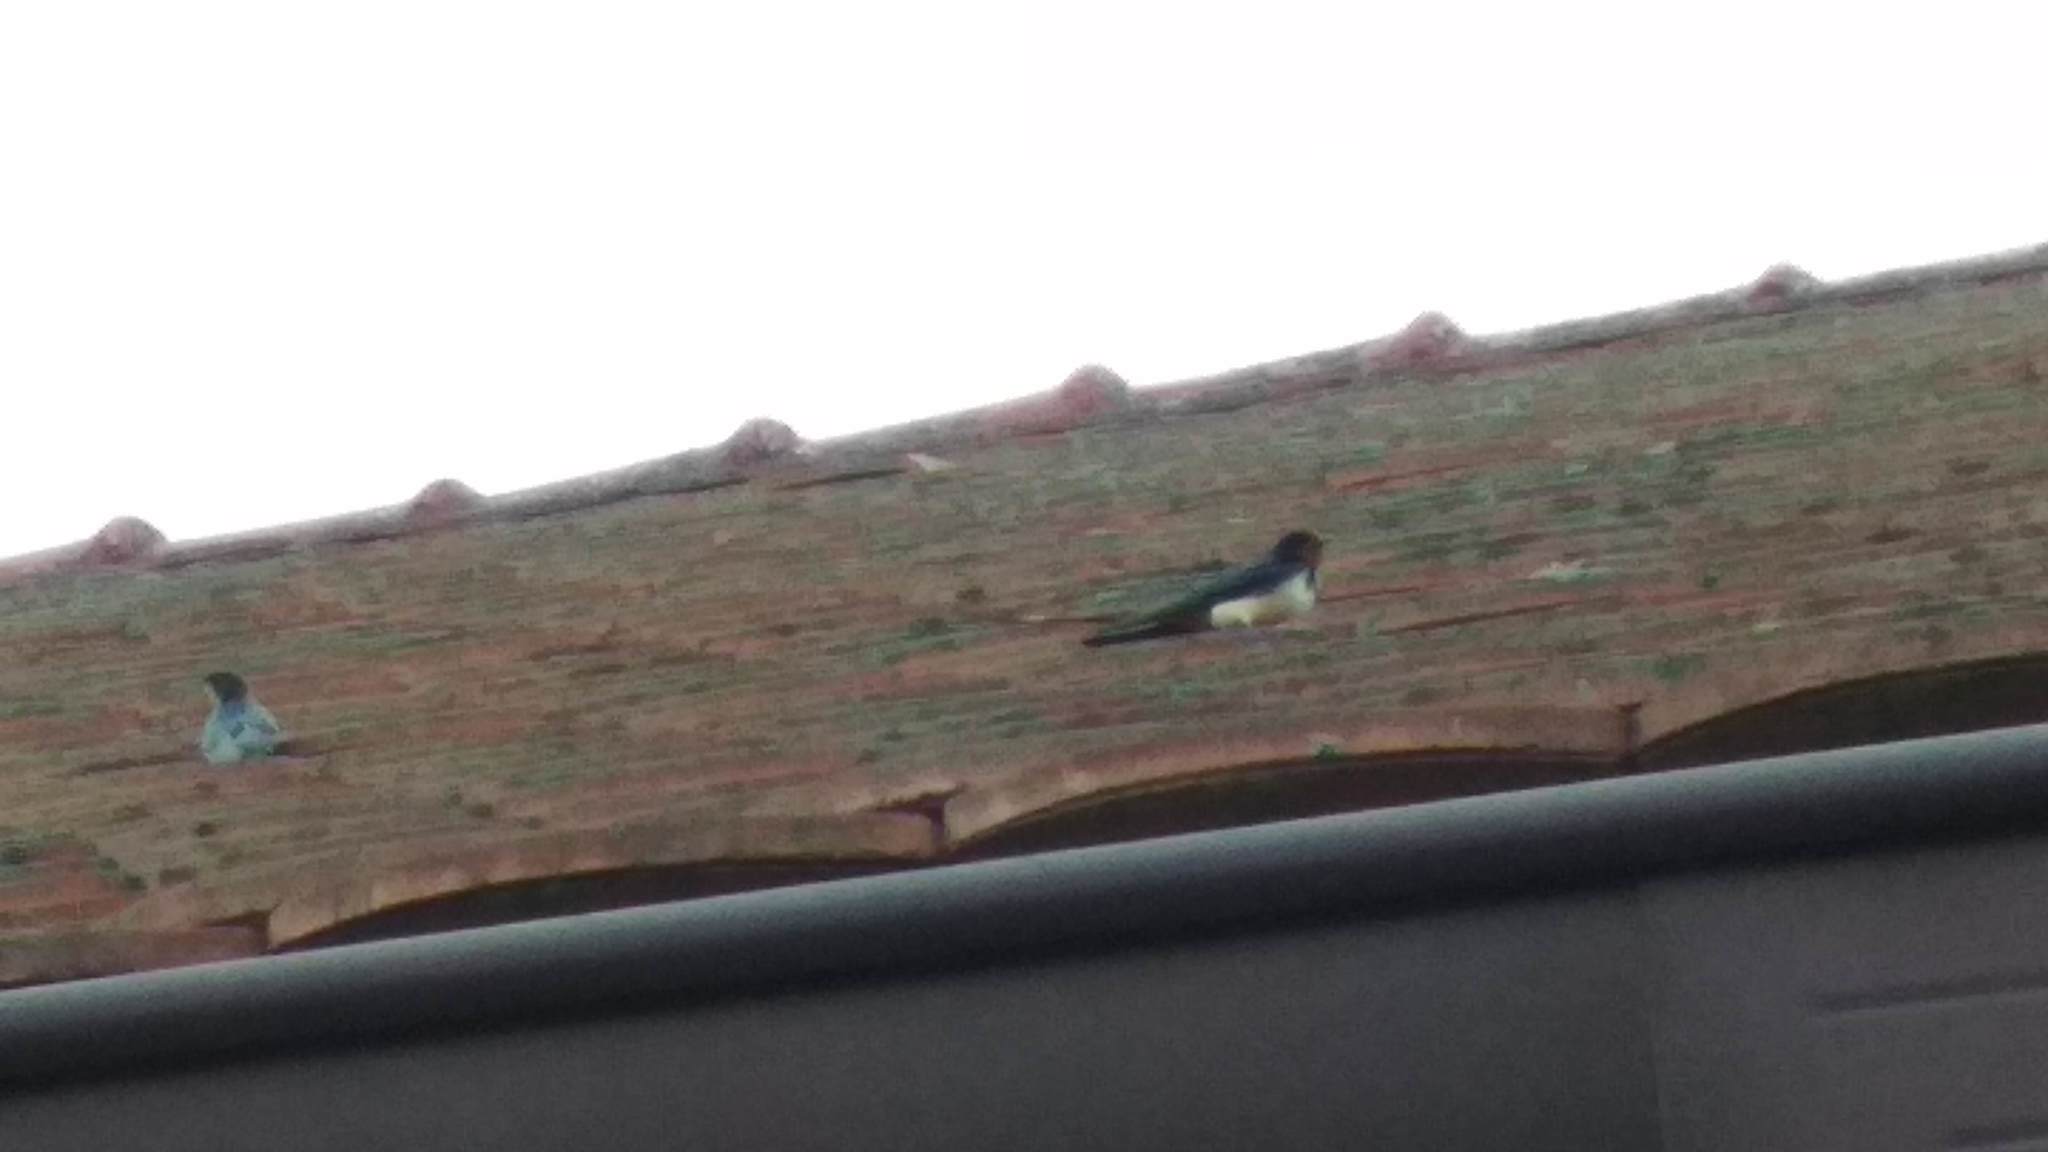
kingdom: Animalia
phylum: Chordata
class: Aves
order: Passeriformes
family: Hirundinidae
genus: Hirundo
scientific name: Hirundo rustica
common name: Barn swallow
